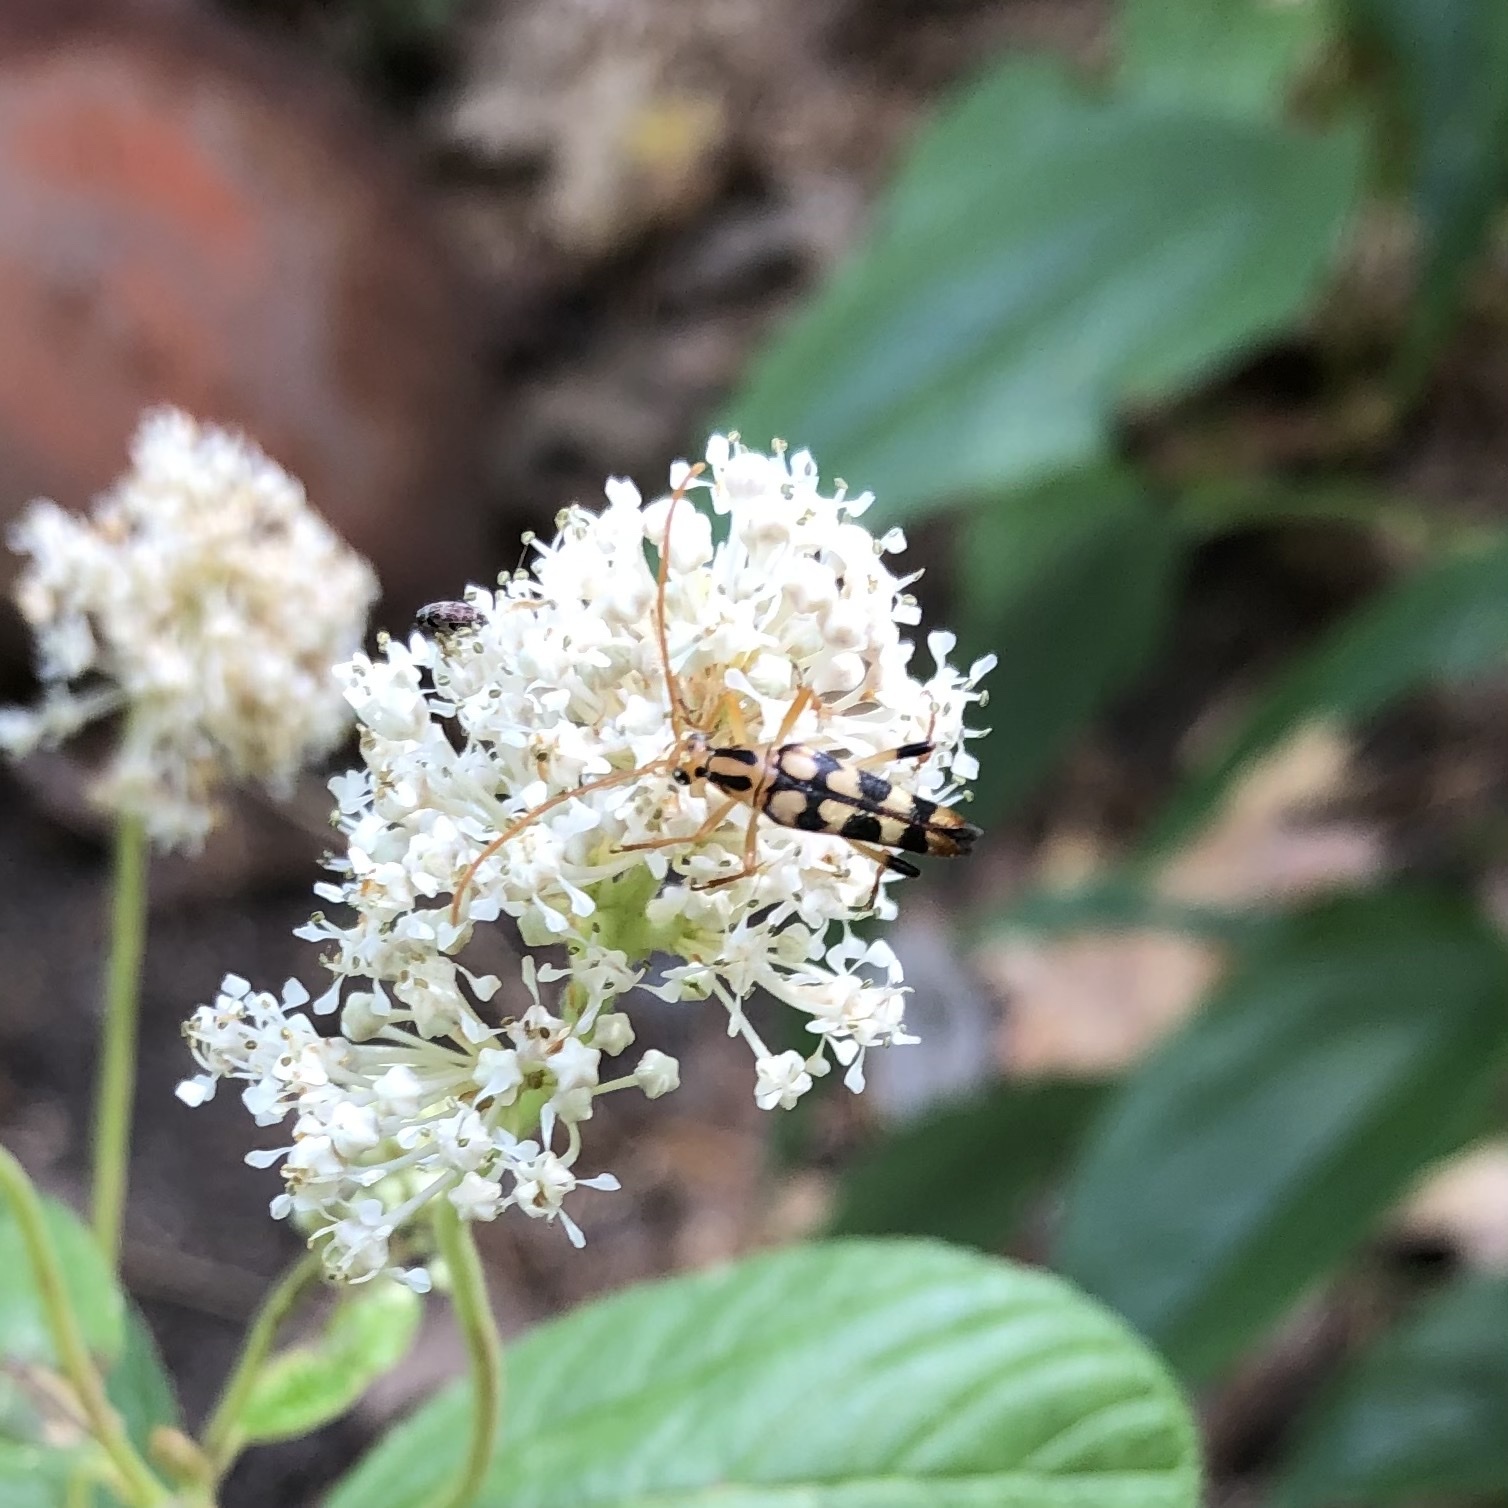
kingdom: Animalia
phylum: Arthropoda
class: Insecta
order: Coleoptera
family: Cerambycidae
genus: Strangalia
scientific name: Strangalia luteicornis
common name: Yellow-horned flower longhorn beetle
